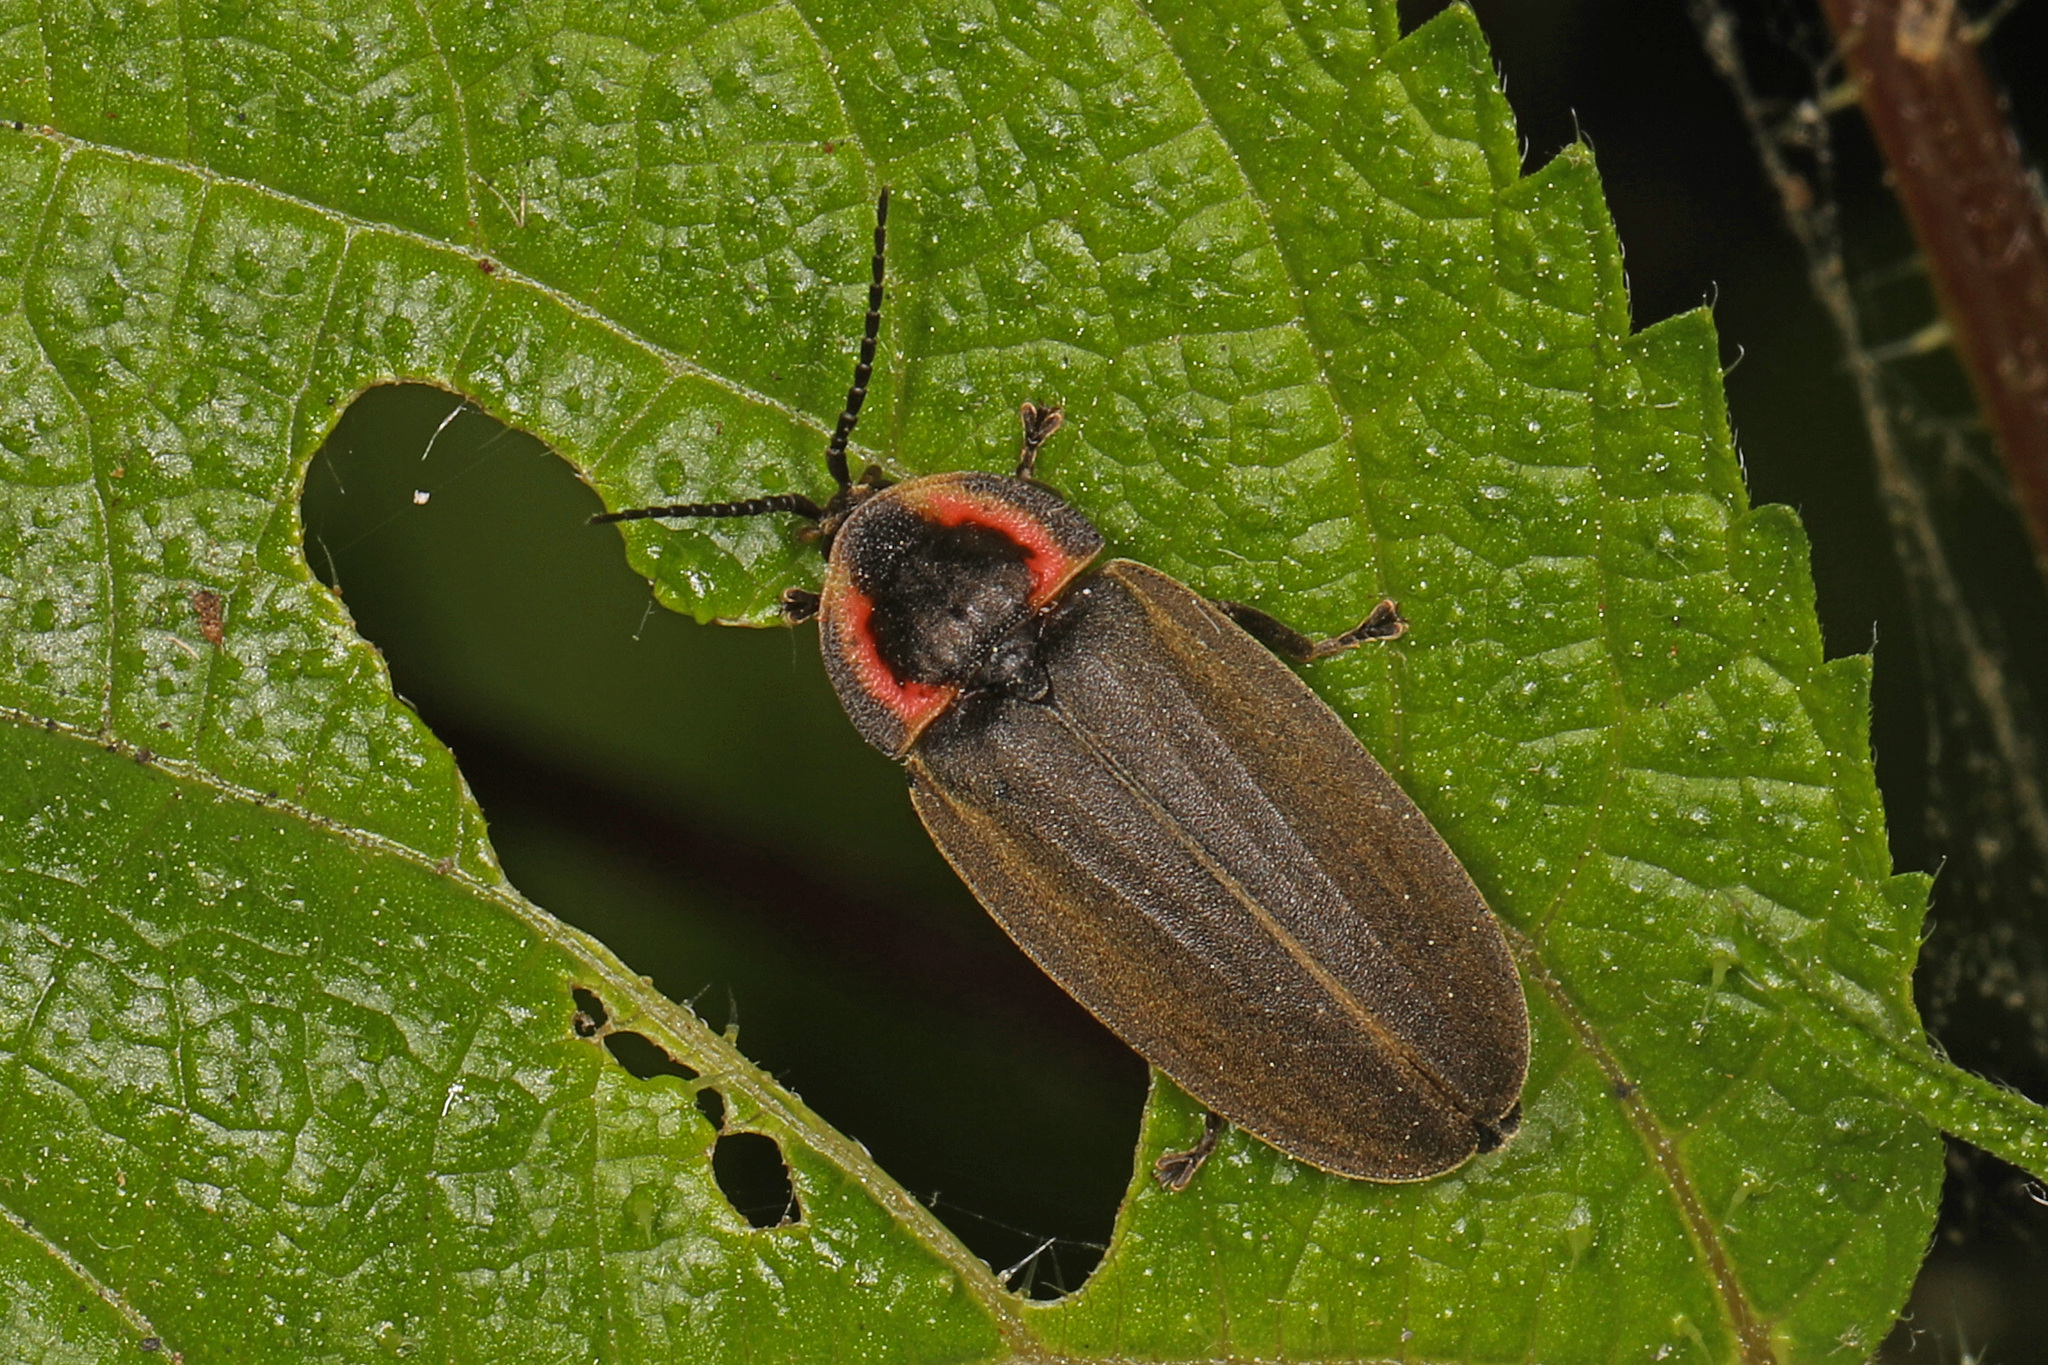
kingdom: Animalia
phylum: Arthropoda
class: Insecta
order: Coleoptera
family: Lampyridae
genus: Photinus
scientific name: Photinus corrusca
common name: Winter firefly
